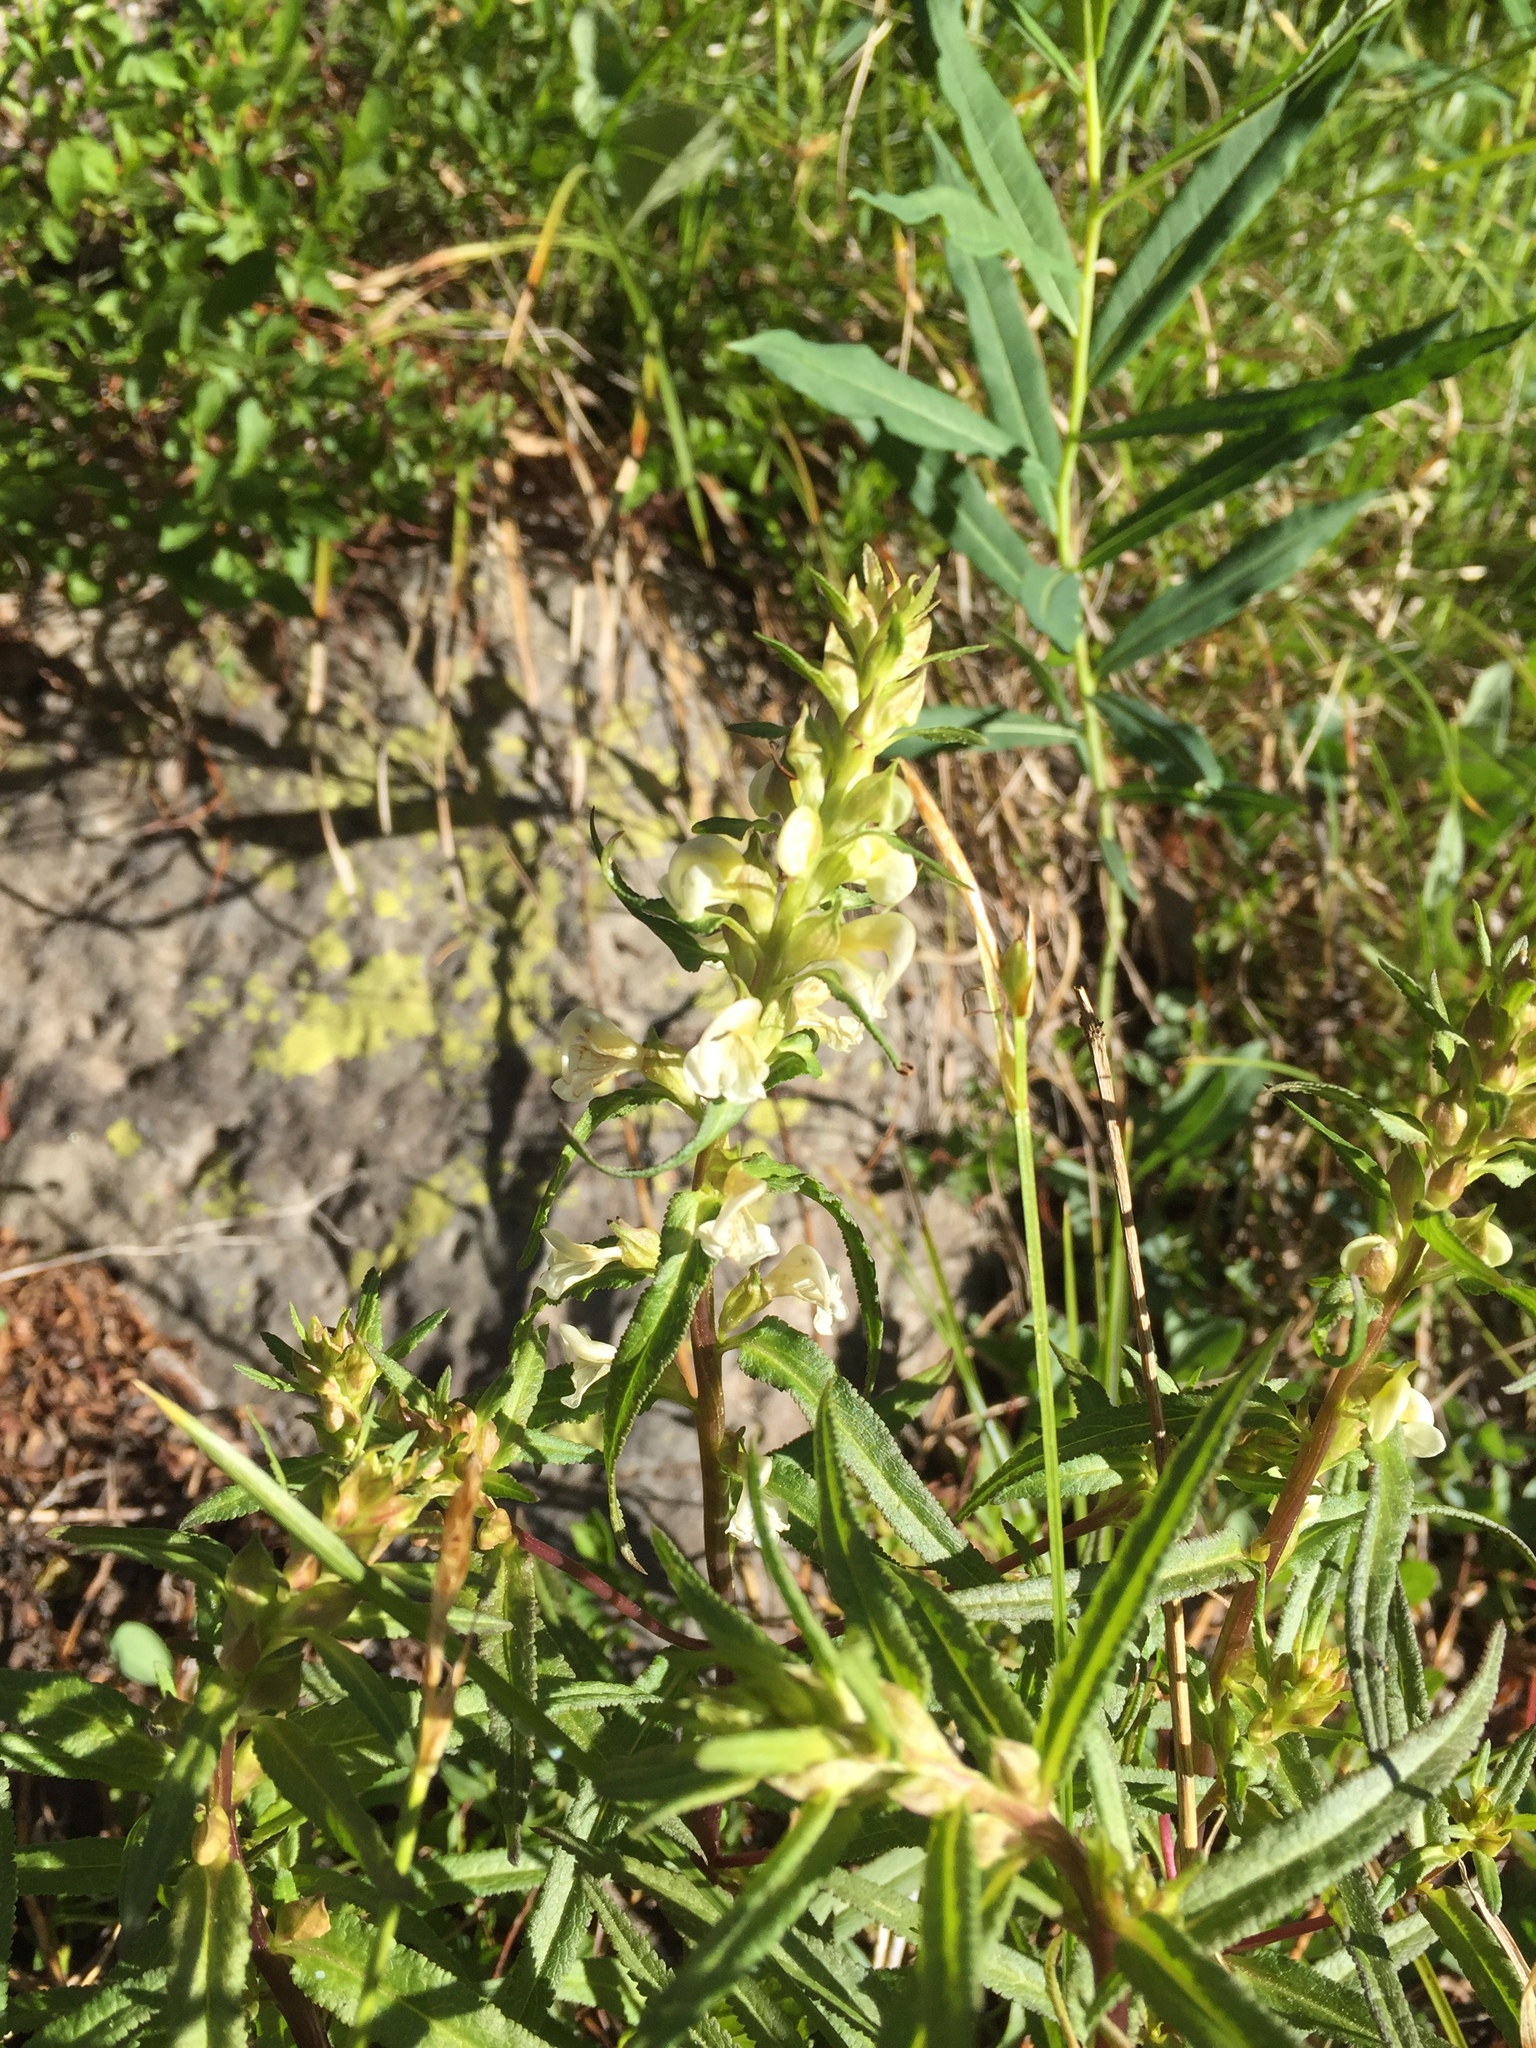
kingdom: Plantae
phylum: Tracheophyta
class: Magnoliopsida
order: Lamiales
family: Orobanchaceae
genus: Pedicularis
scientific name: Pedicularis racemosa
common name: Leafy lousewort
